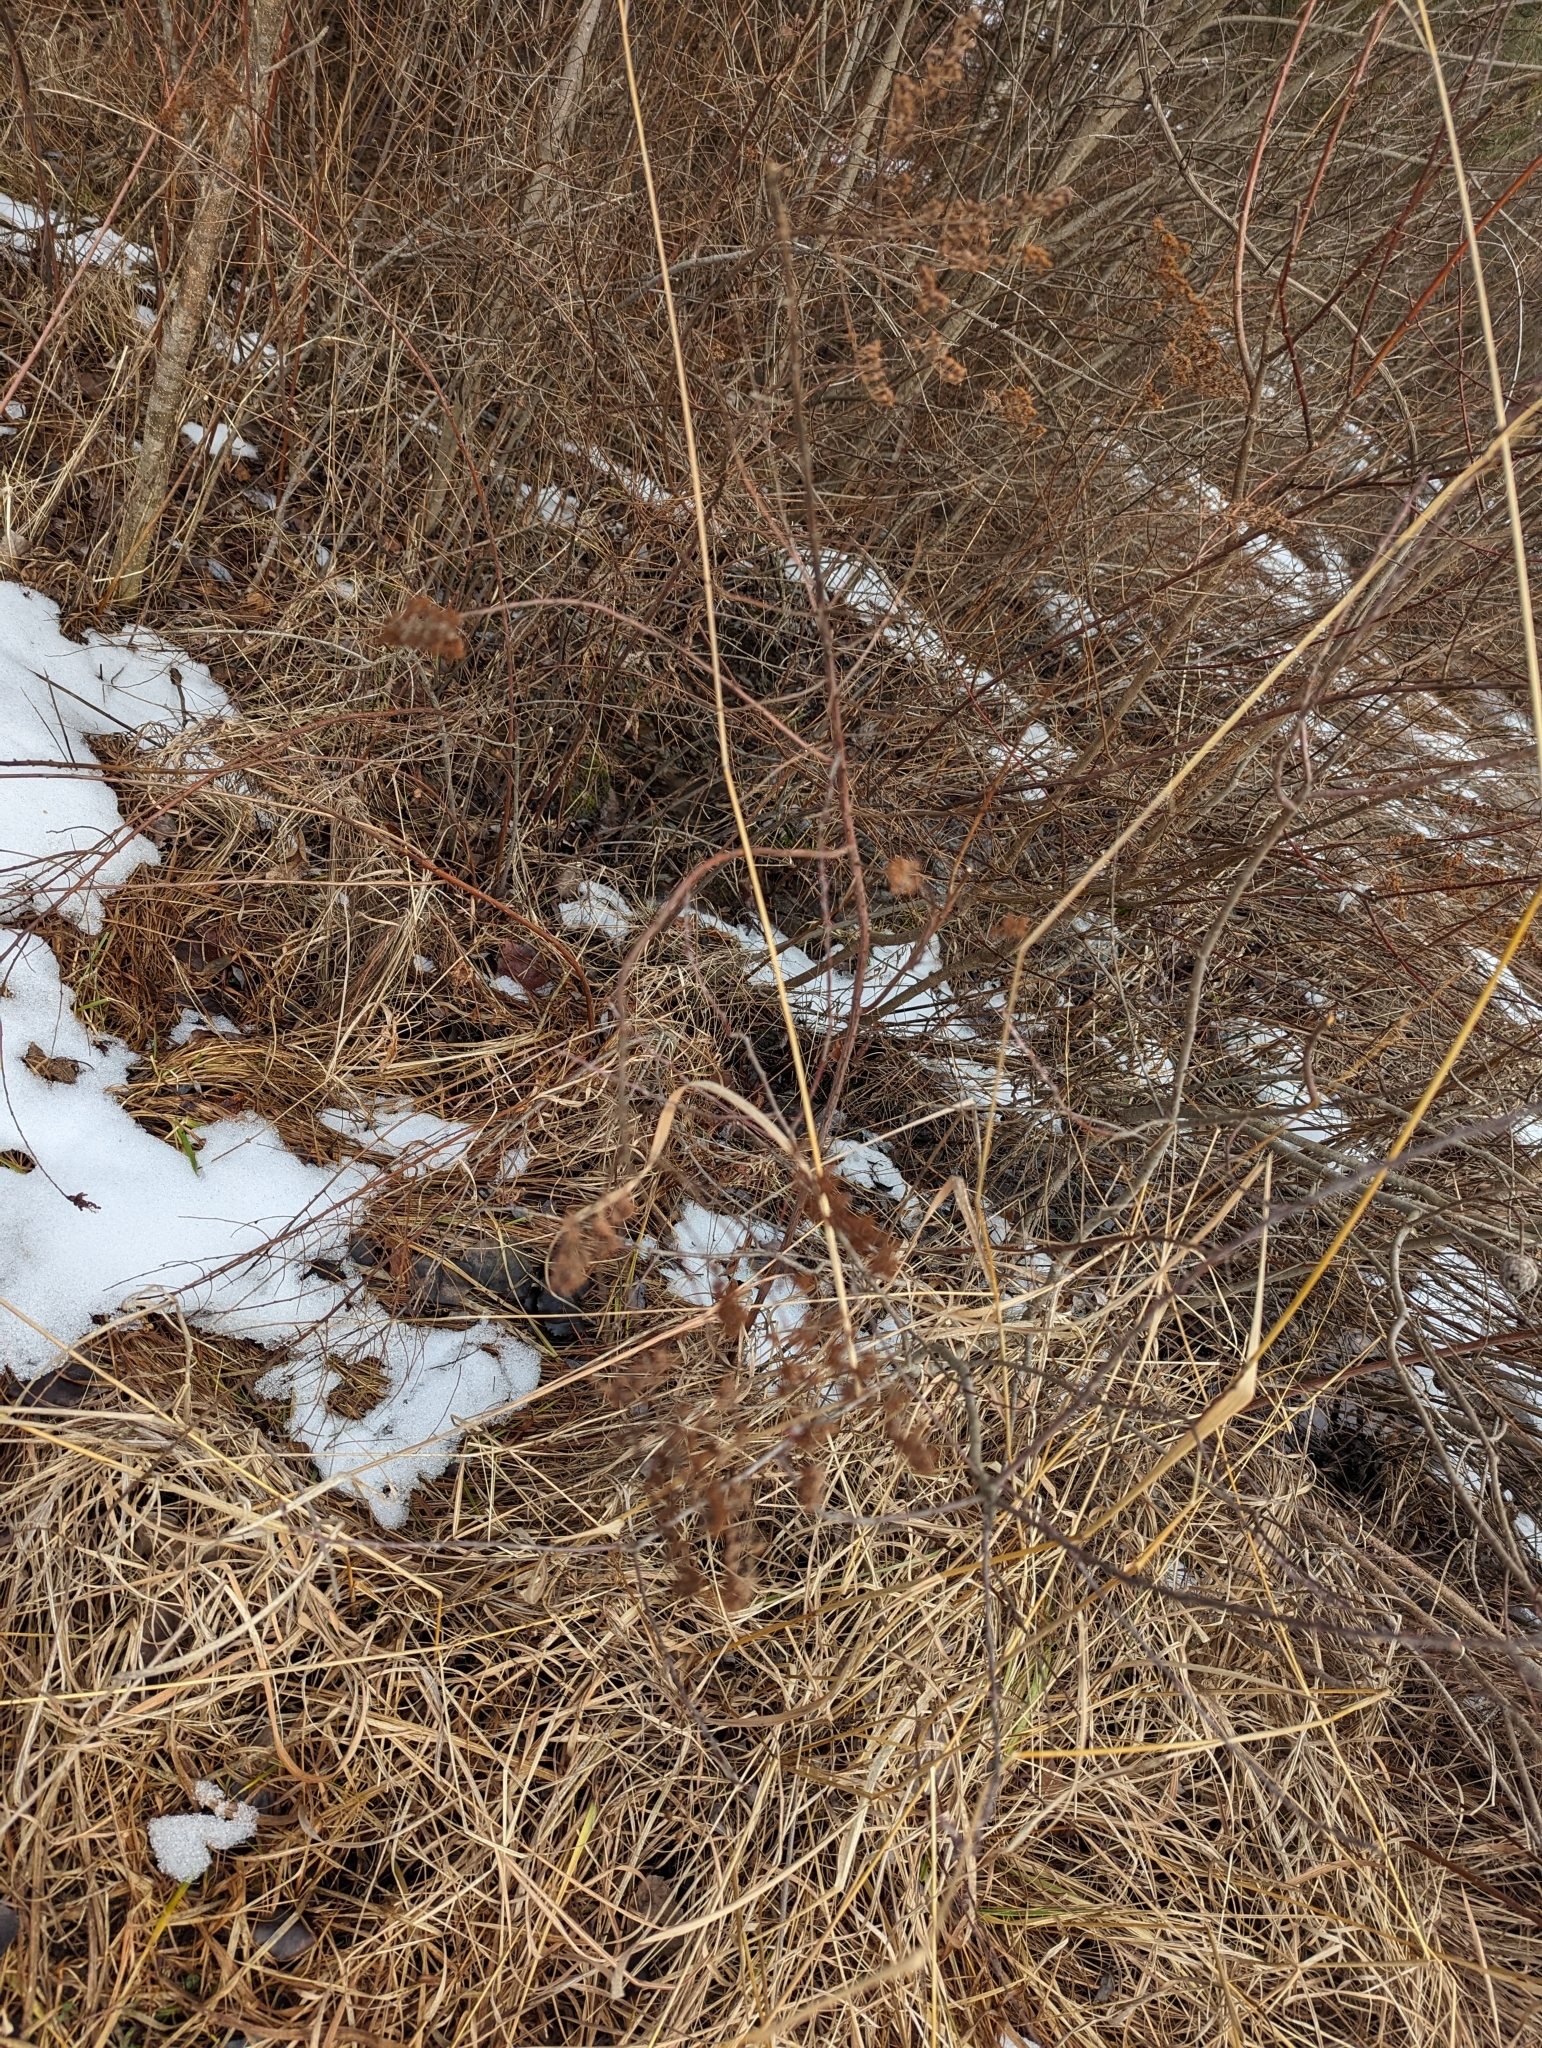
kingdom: Plantae
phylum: Tracheophyta
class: Magnoliopsida
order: Rosales
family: Rosaceae
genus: Spiraea
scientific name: Spiraea alba
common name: Pale bridewort
